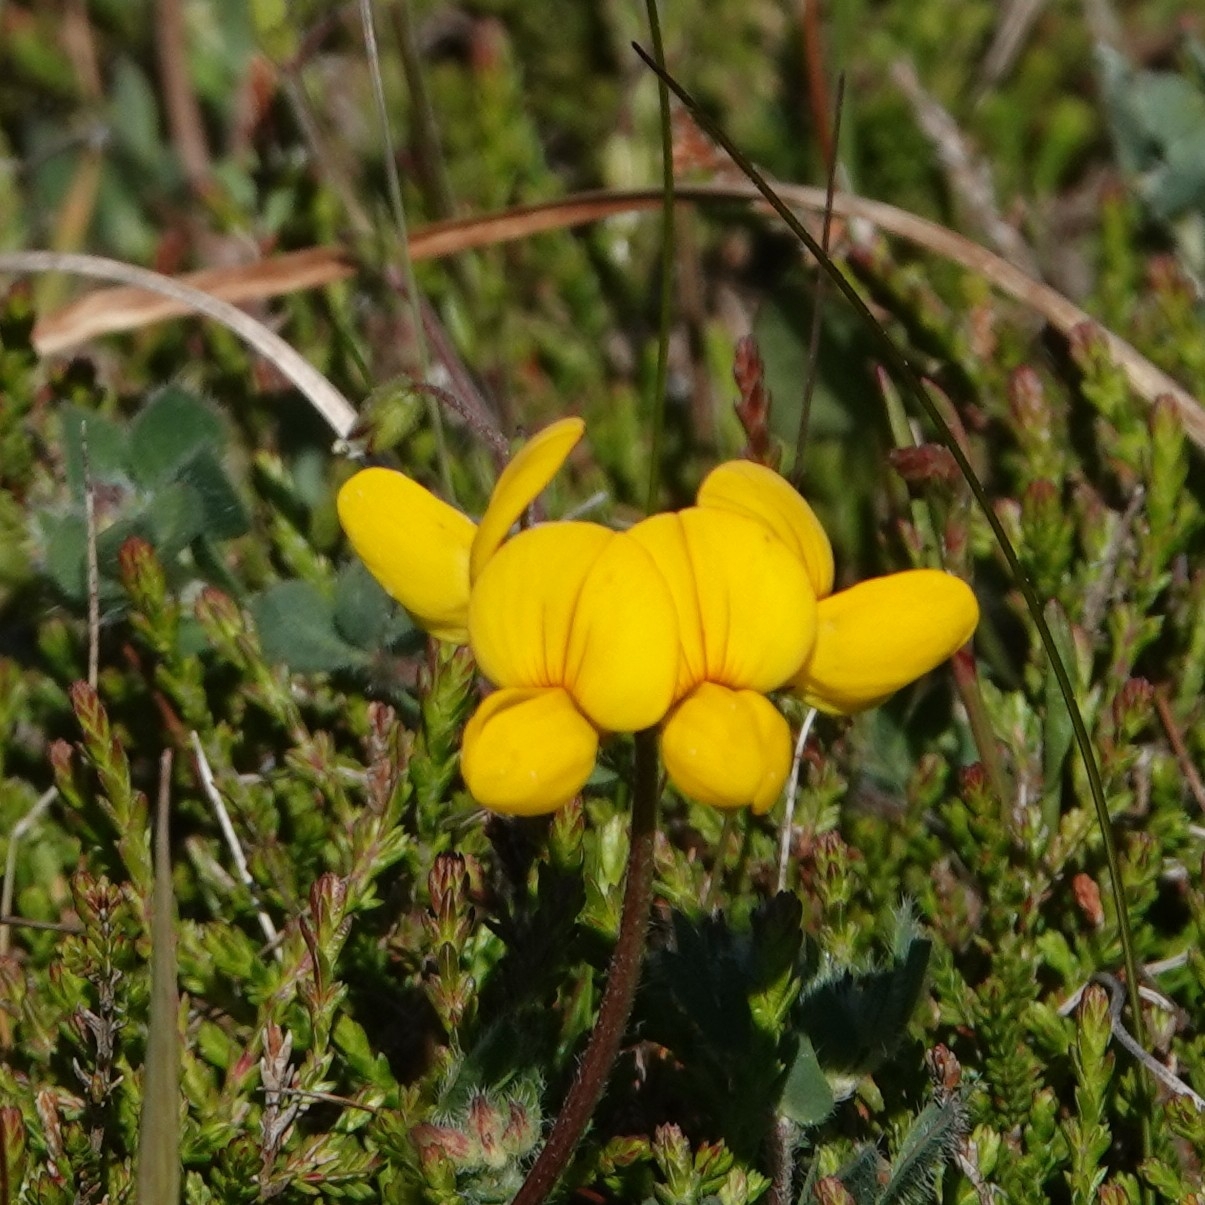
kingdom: Plantae
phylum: Tracheophyta
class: Magnoliopsida
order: Fabales
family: Fabaceae
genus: Lotus
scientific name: Lotus corniculatus
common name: Common bird's-foot-trefoil
